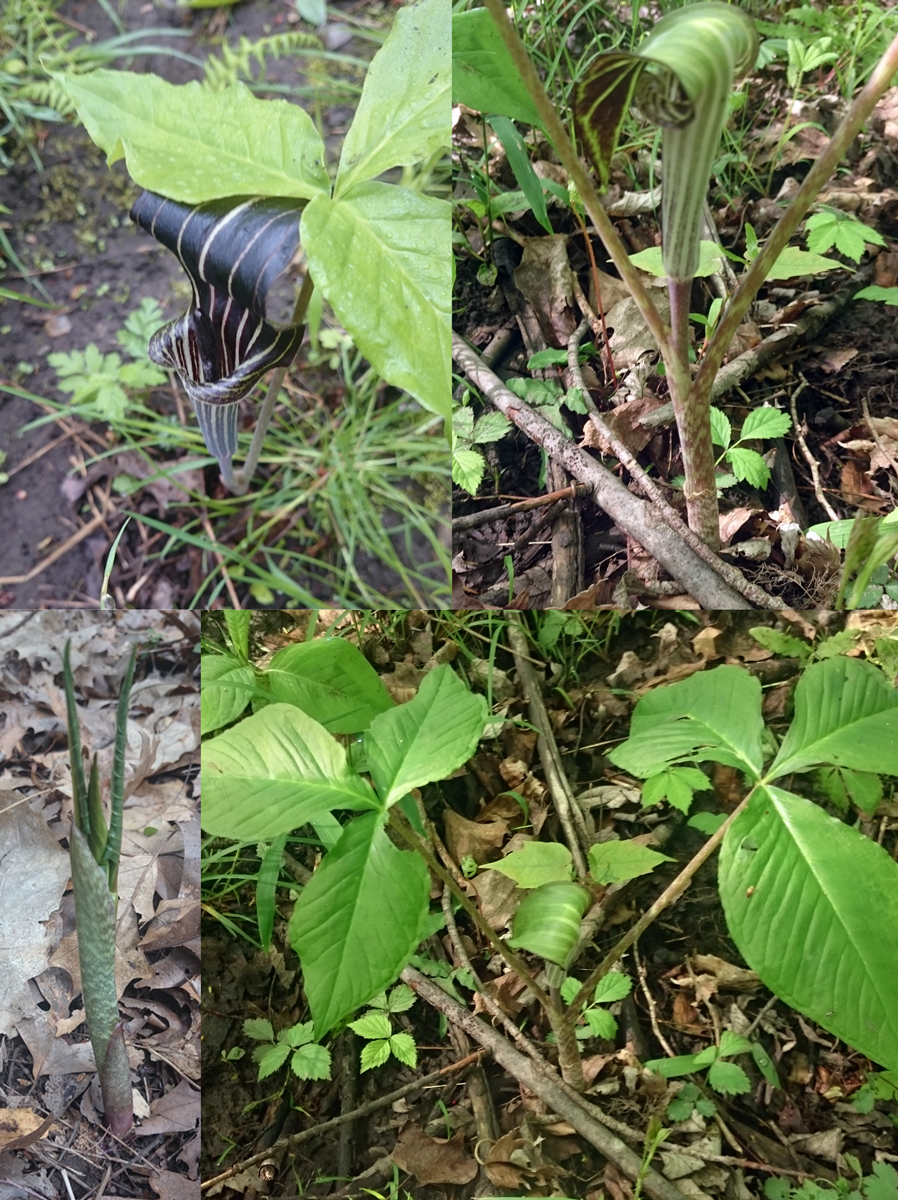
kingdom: Plantae
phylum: Tracheophyta
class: Liliopsida
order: Alismatales
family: Araceae
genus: Arisaema
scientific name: Arisaema triphyllum
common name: Jack-in-the-pulpit
